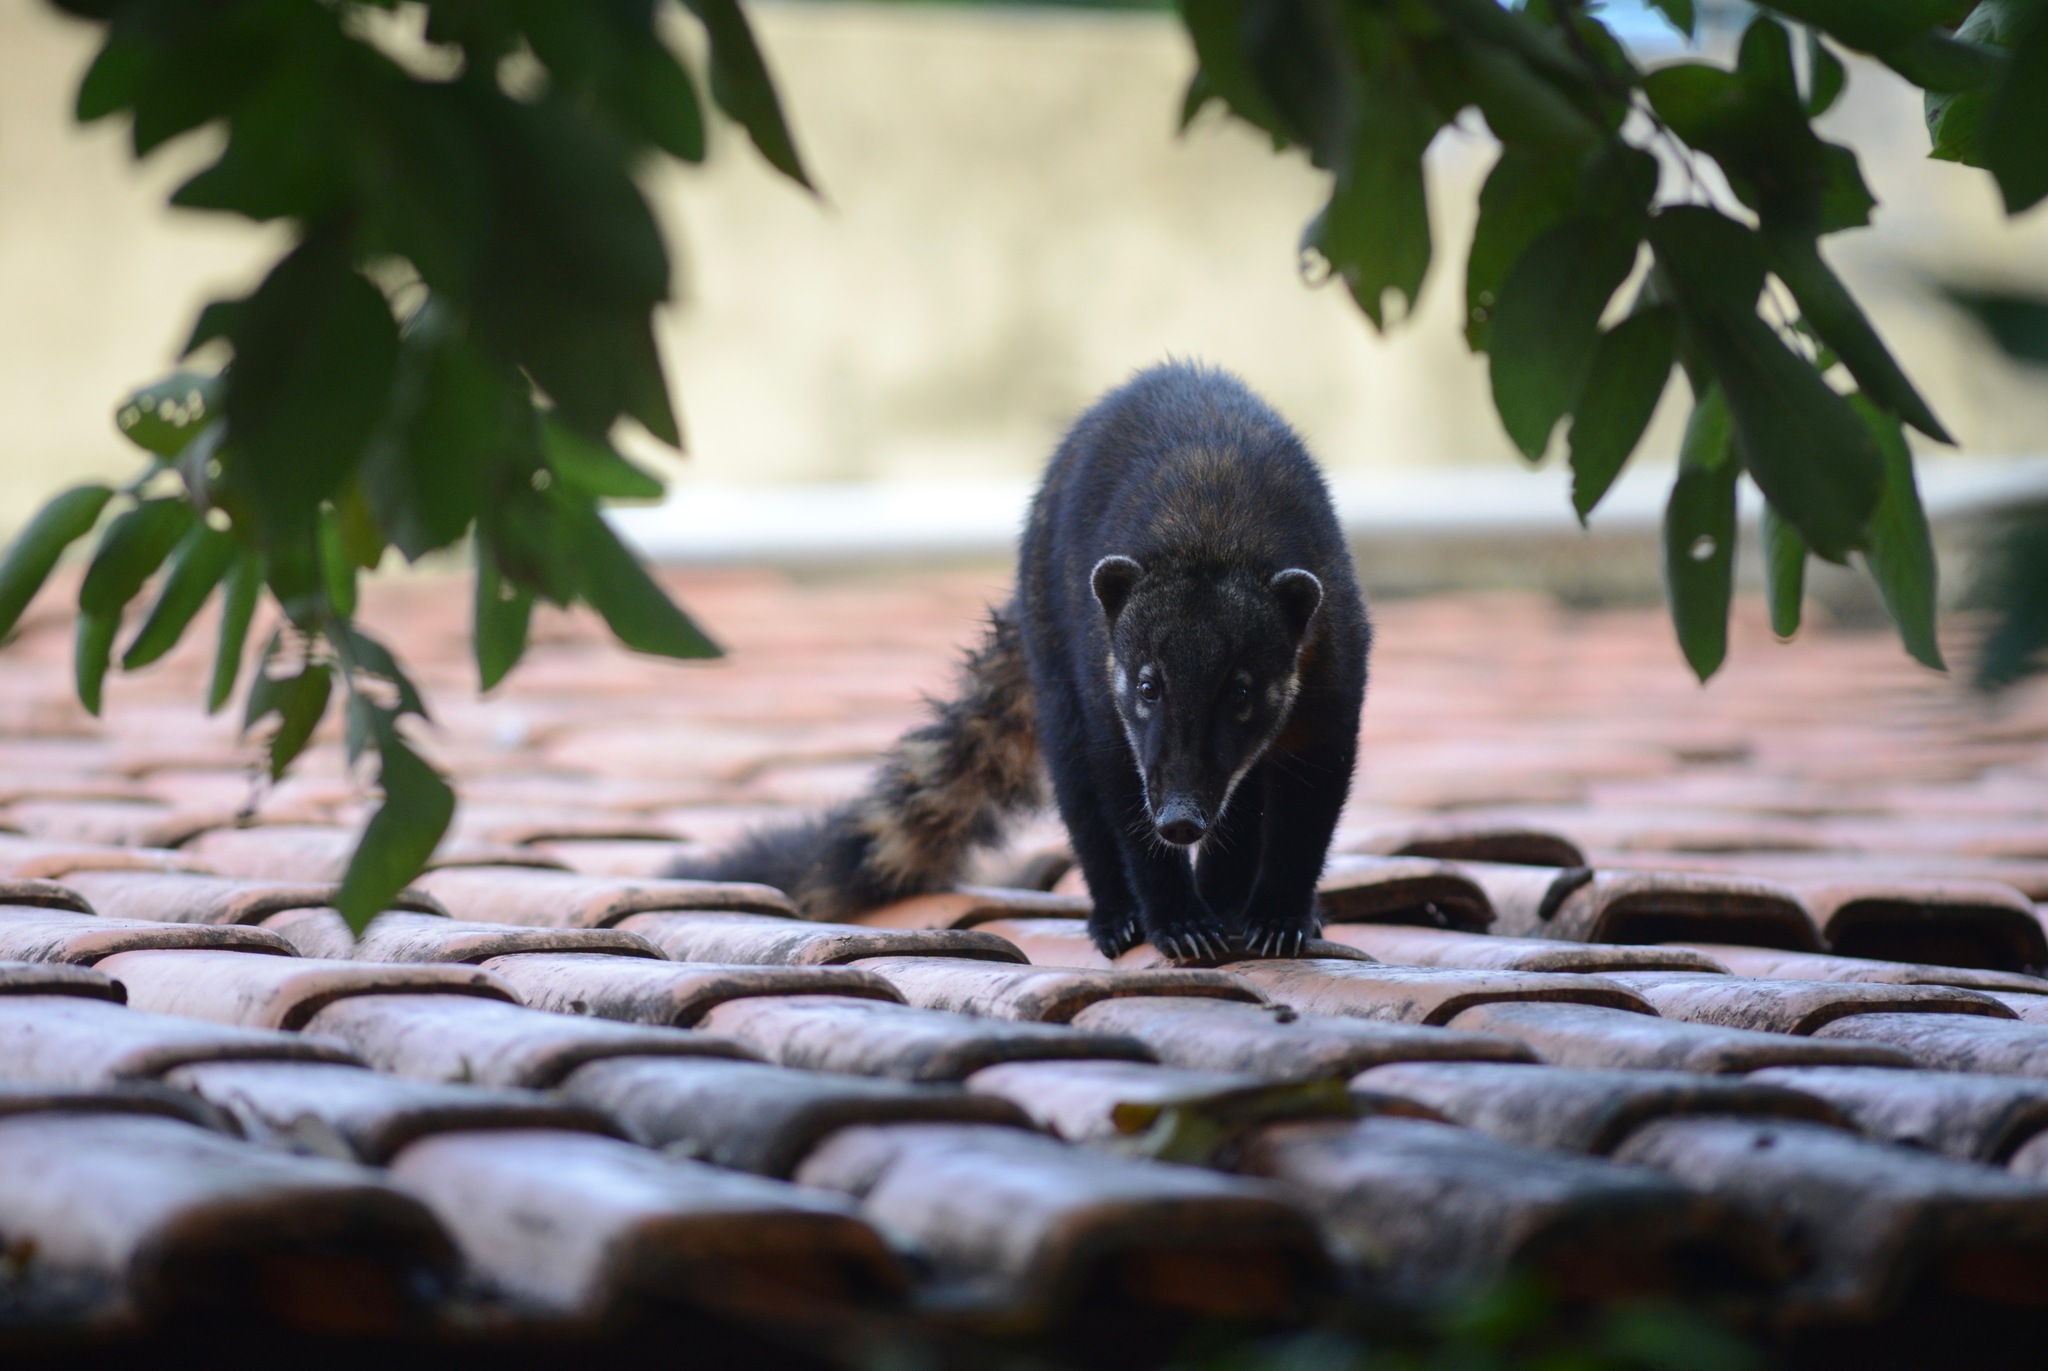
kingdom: Animalia
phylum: Chordata
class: Mammalia
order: Carnivora
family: Procyonidae
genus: Nasua
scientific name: Nasua nasua
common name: South american coati
